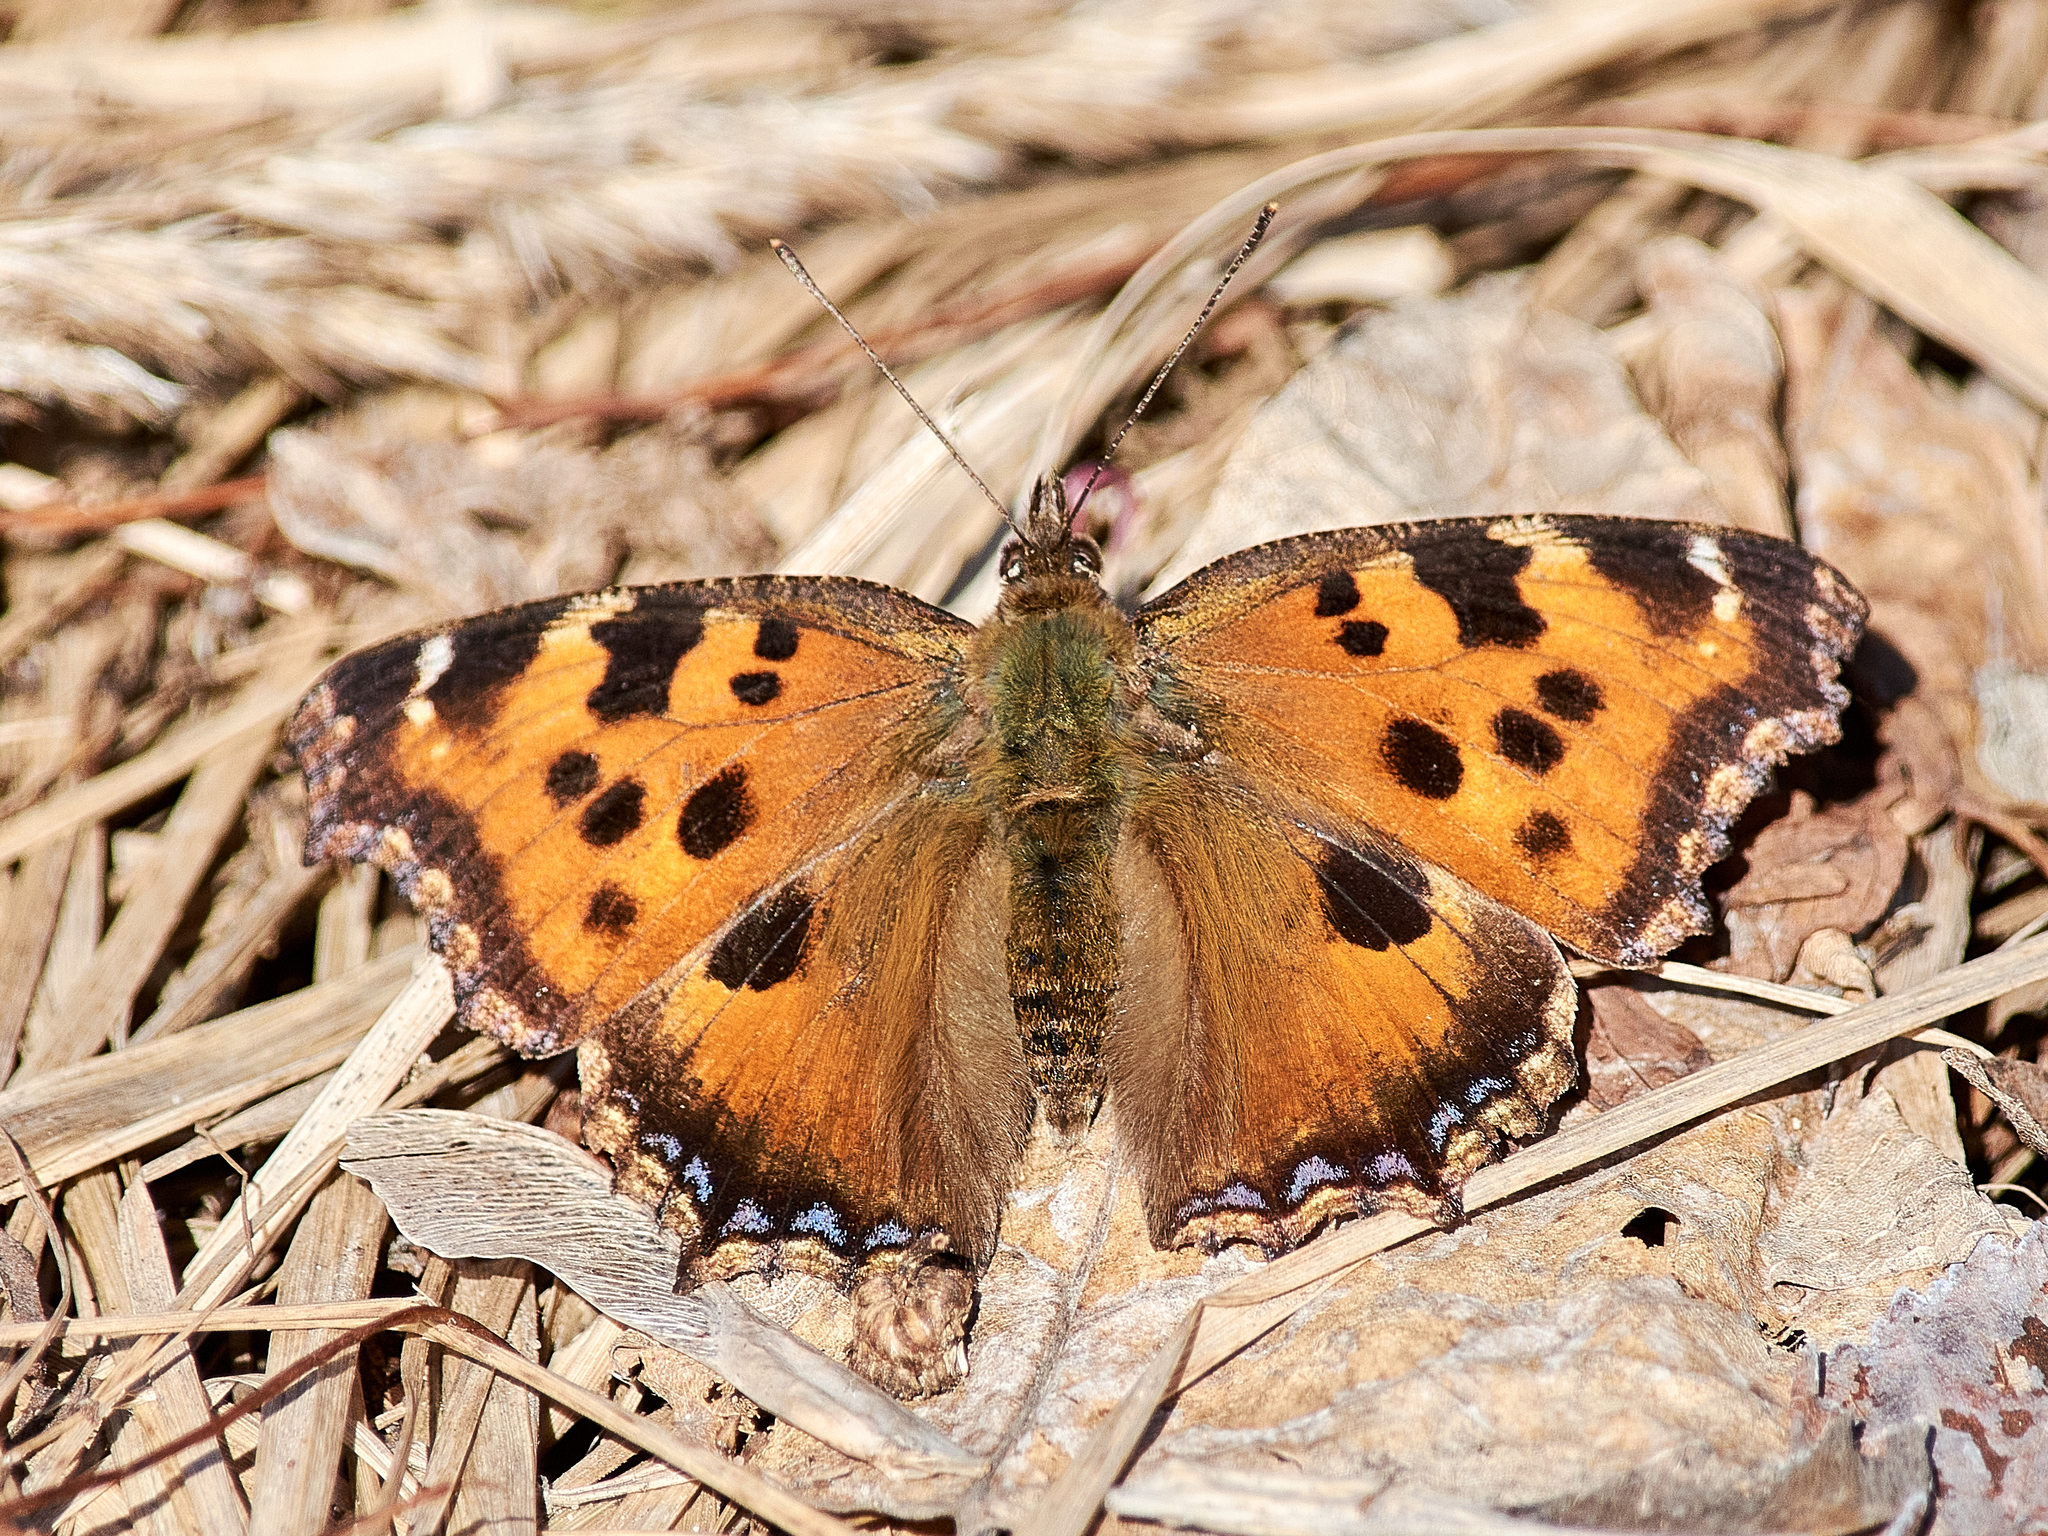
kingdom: Animalia
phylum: Arthropoda
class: Insecta
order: Lepidoptera
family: Nymphalidae
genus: Nymphalis
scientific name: Nymphalis xanthomelas
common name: Scarce tortoiseshell
